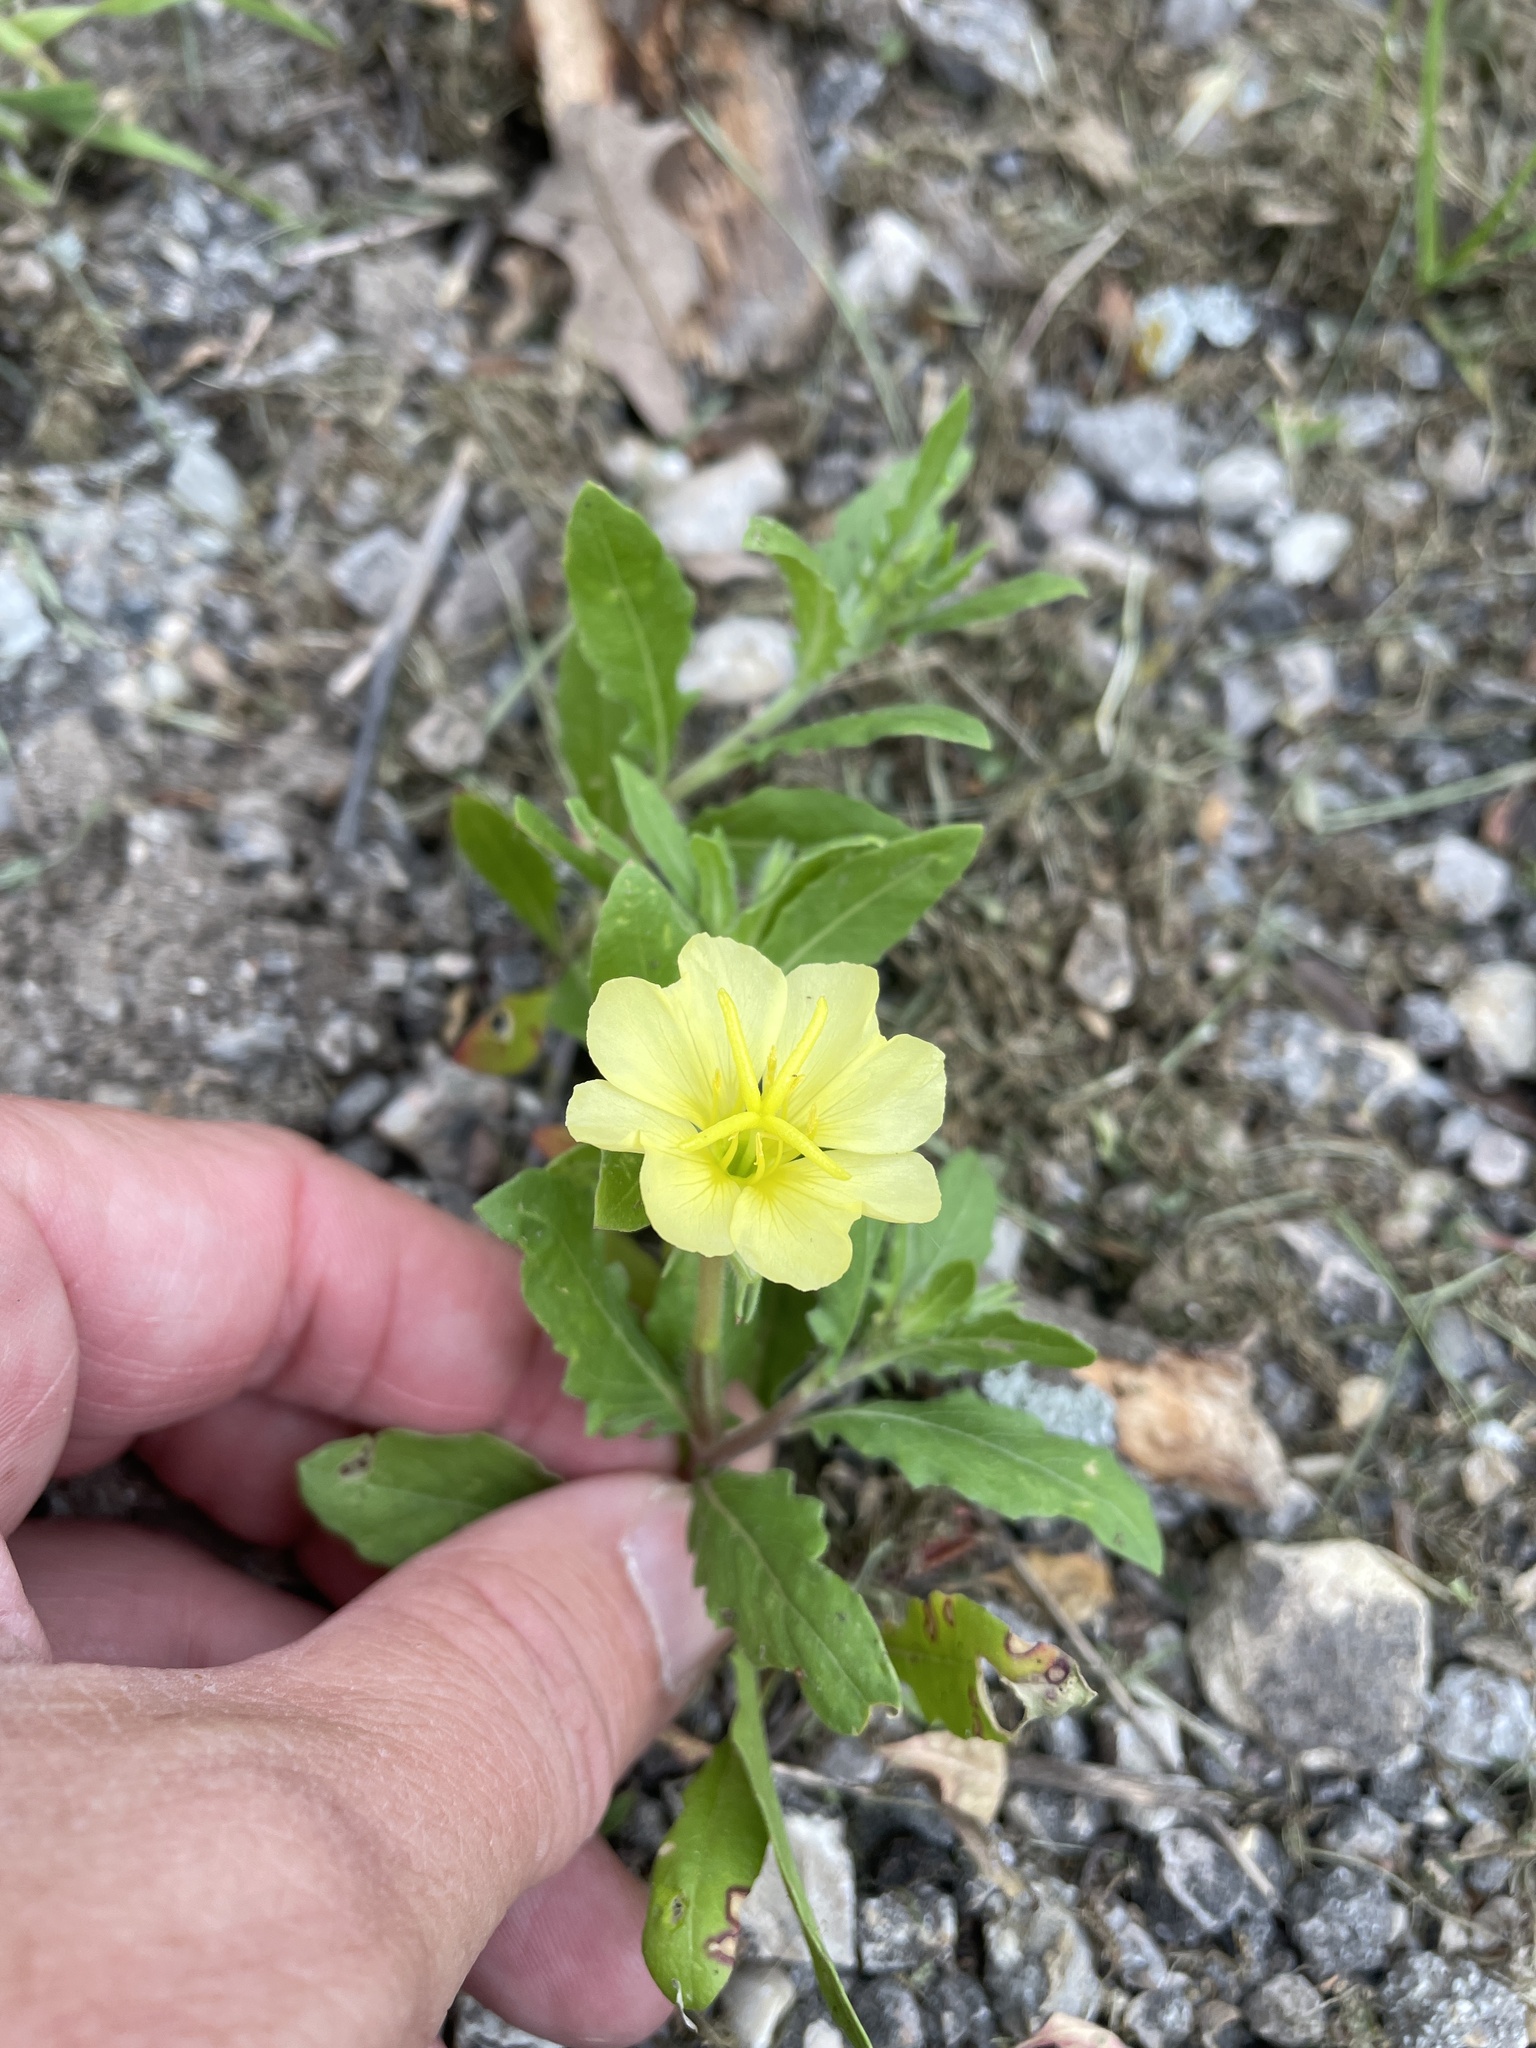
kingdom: Plantae
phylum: Tracheophyta
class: Magnoliopsida
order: Myrtales
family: Onagraceae
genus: Oenothera
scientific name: Oenothera laciniata
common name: Cut-leaved evening-primrose
